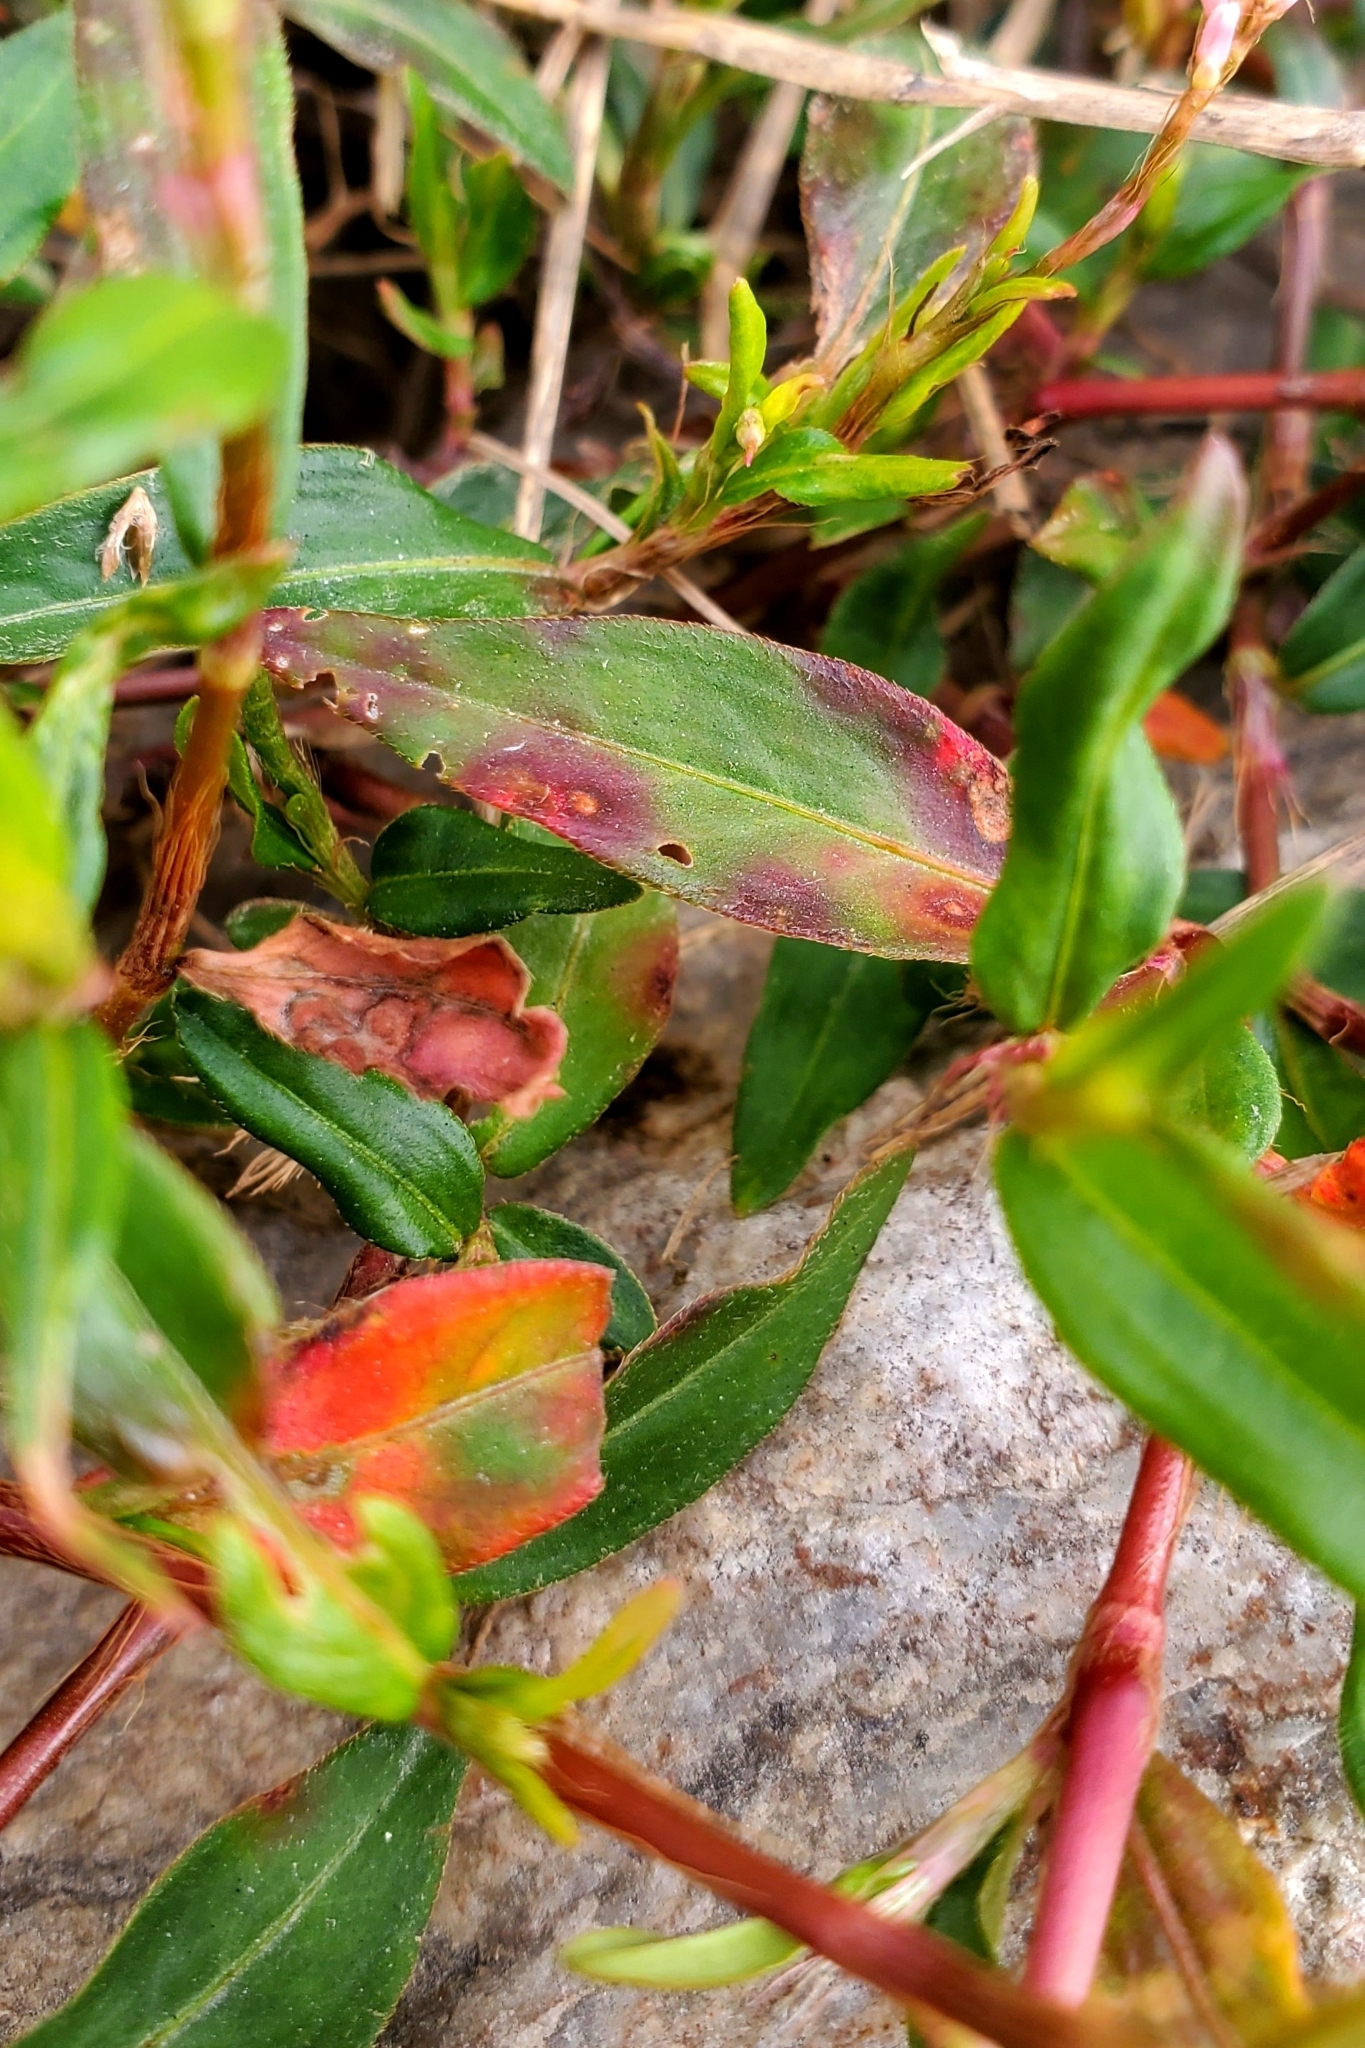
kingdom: Plantae
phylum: Tracheophyta
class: Magnoliopsida
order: Caryophyllales
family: Polygonaceae
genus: Persicaria
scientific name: Persicaria longiseta
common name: Bristly lady's-thumb
